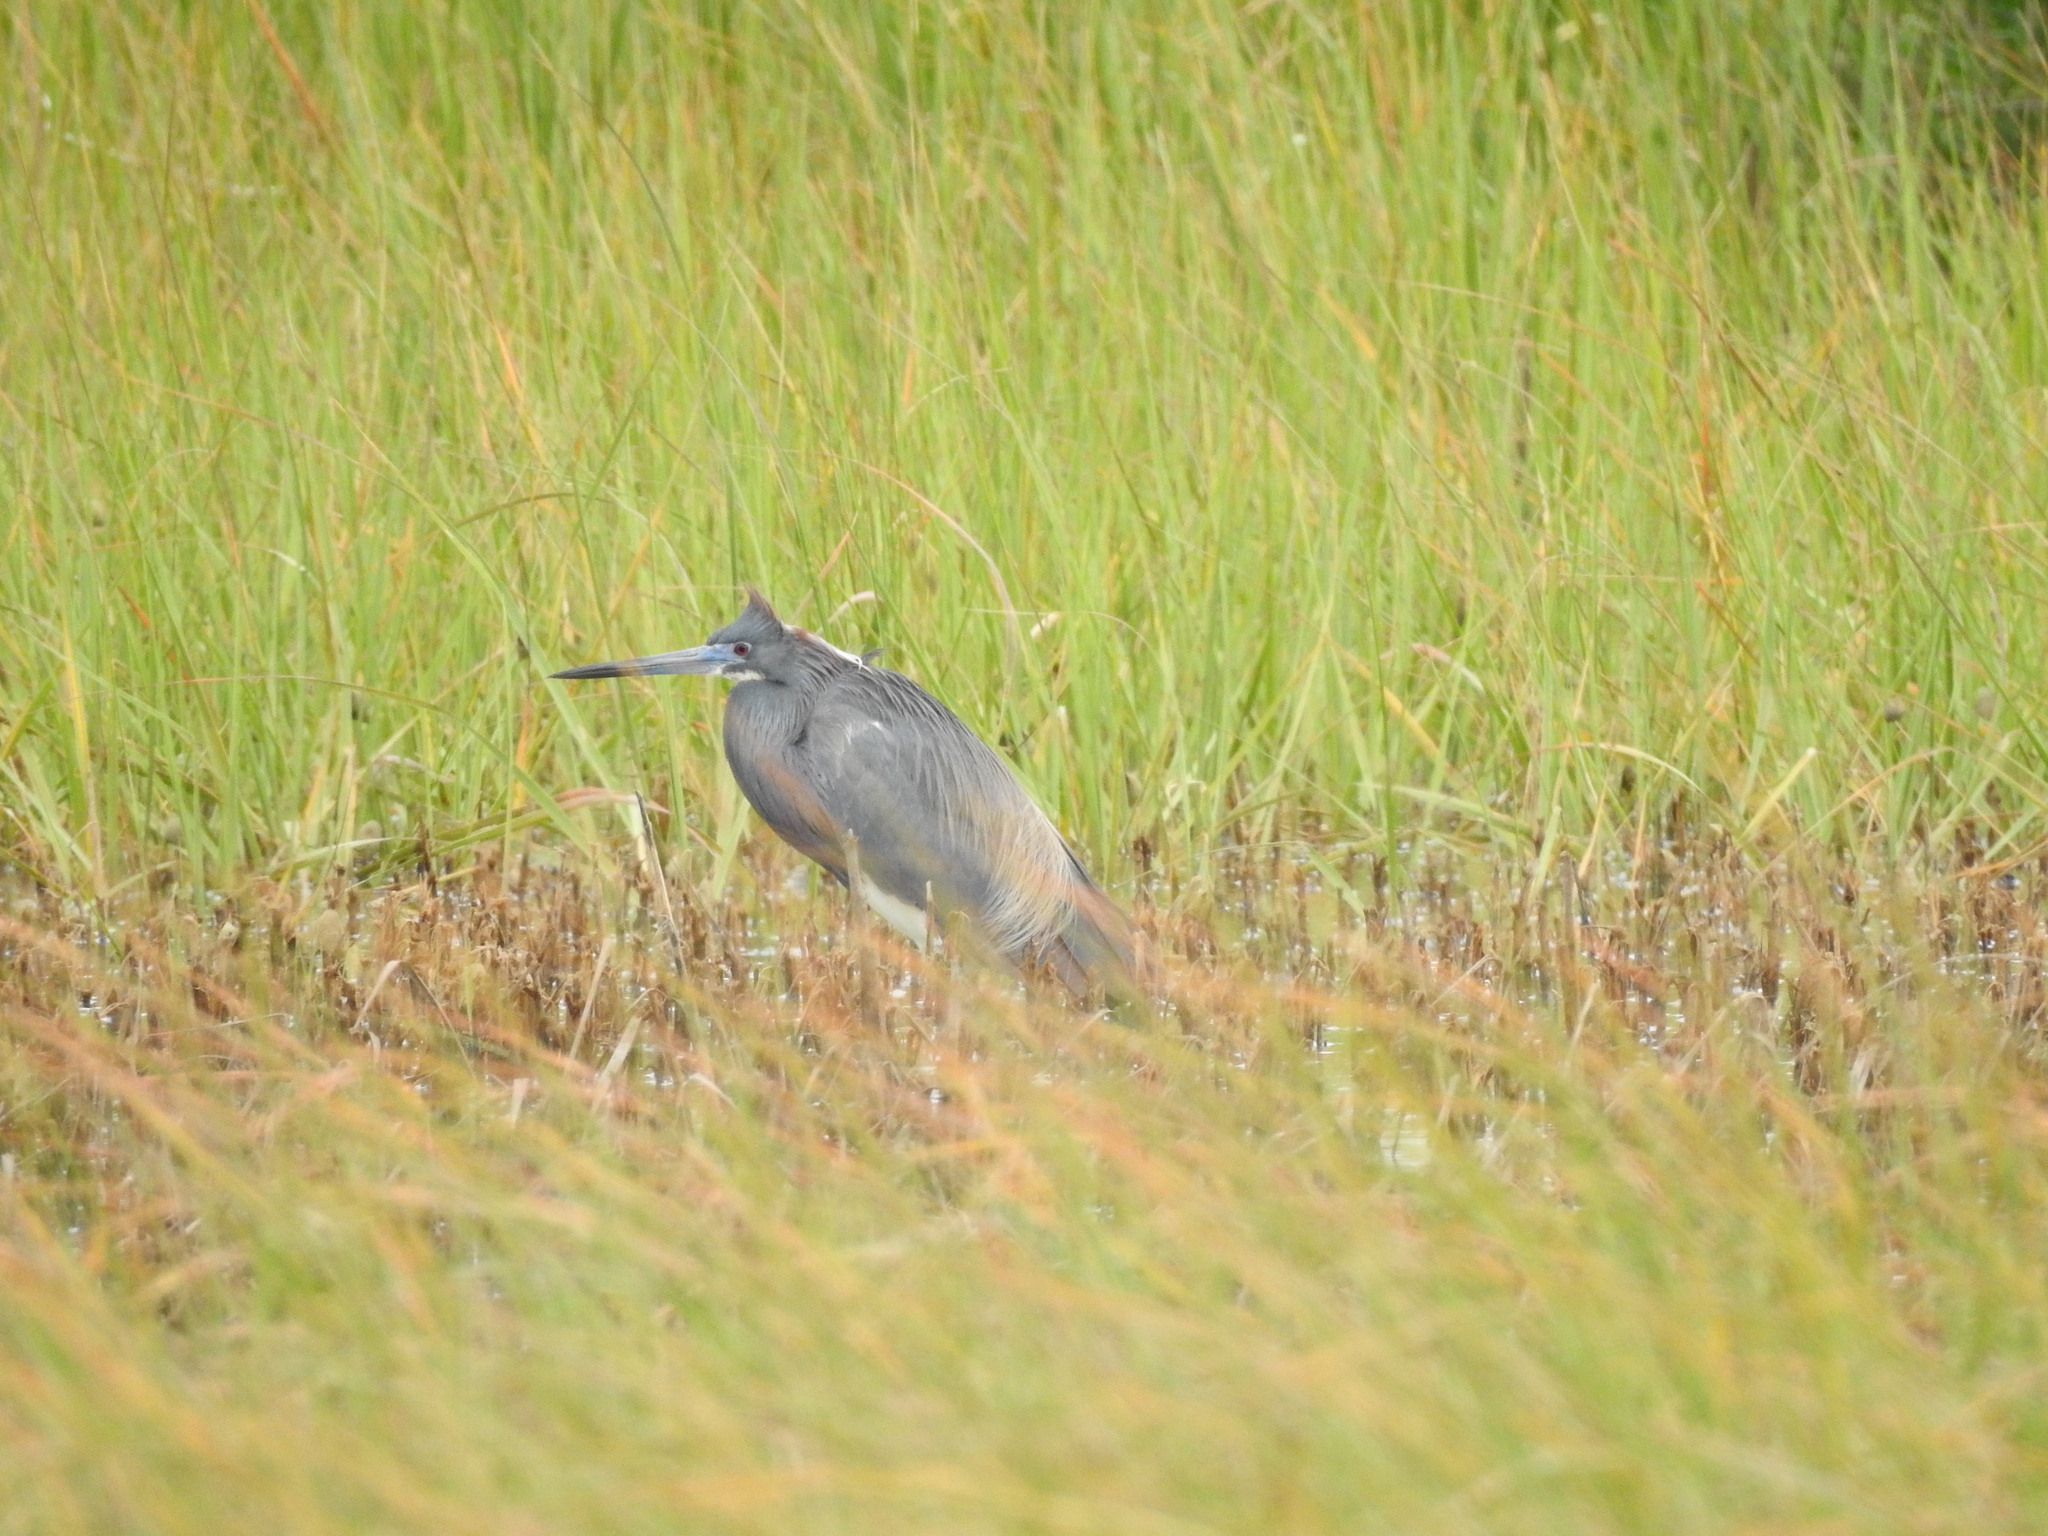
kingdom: Animalia
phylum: Chordata
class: Aves
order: Pelecaniformes
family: Ardeidae
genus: Egretta
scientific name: Egretta tricolor
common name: Tricolored heron
